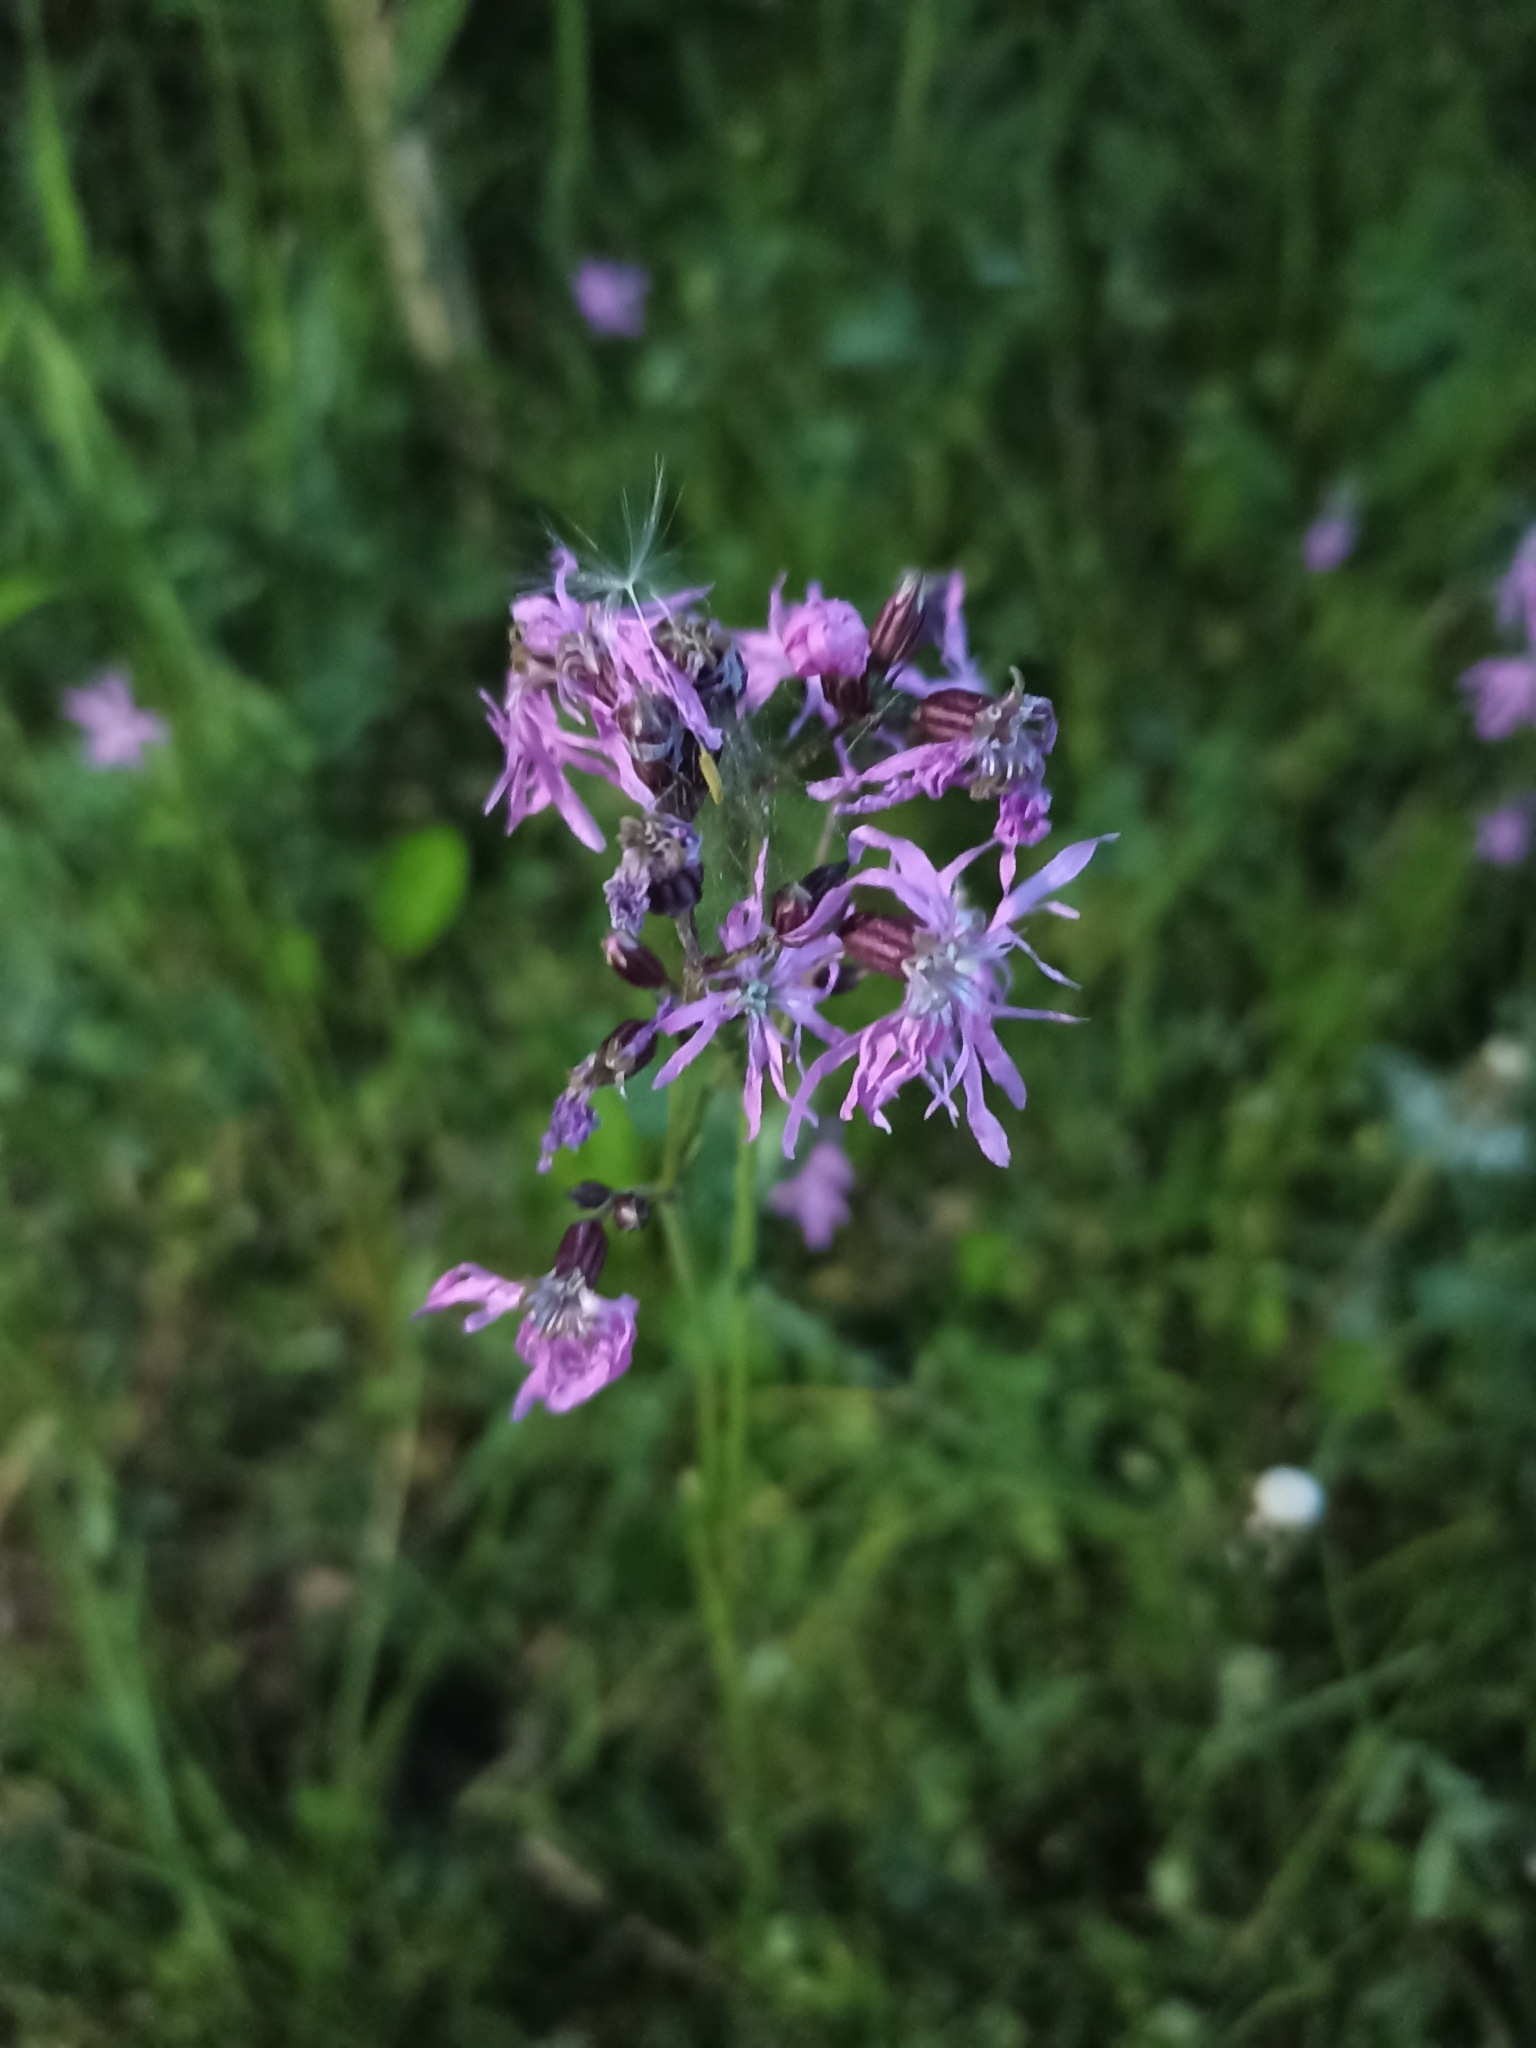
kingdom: Plantae
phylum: Tracheophyta
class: Magnoliopsida
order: Caryophyllales
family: Caryophyllaceae
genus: Silene
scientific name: Silene flos-cuculi
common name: Ragged-robin
